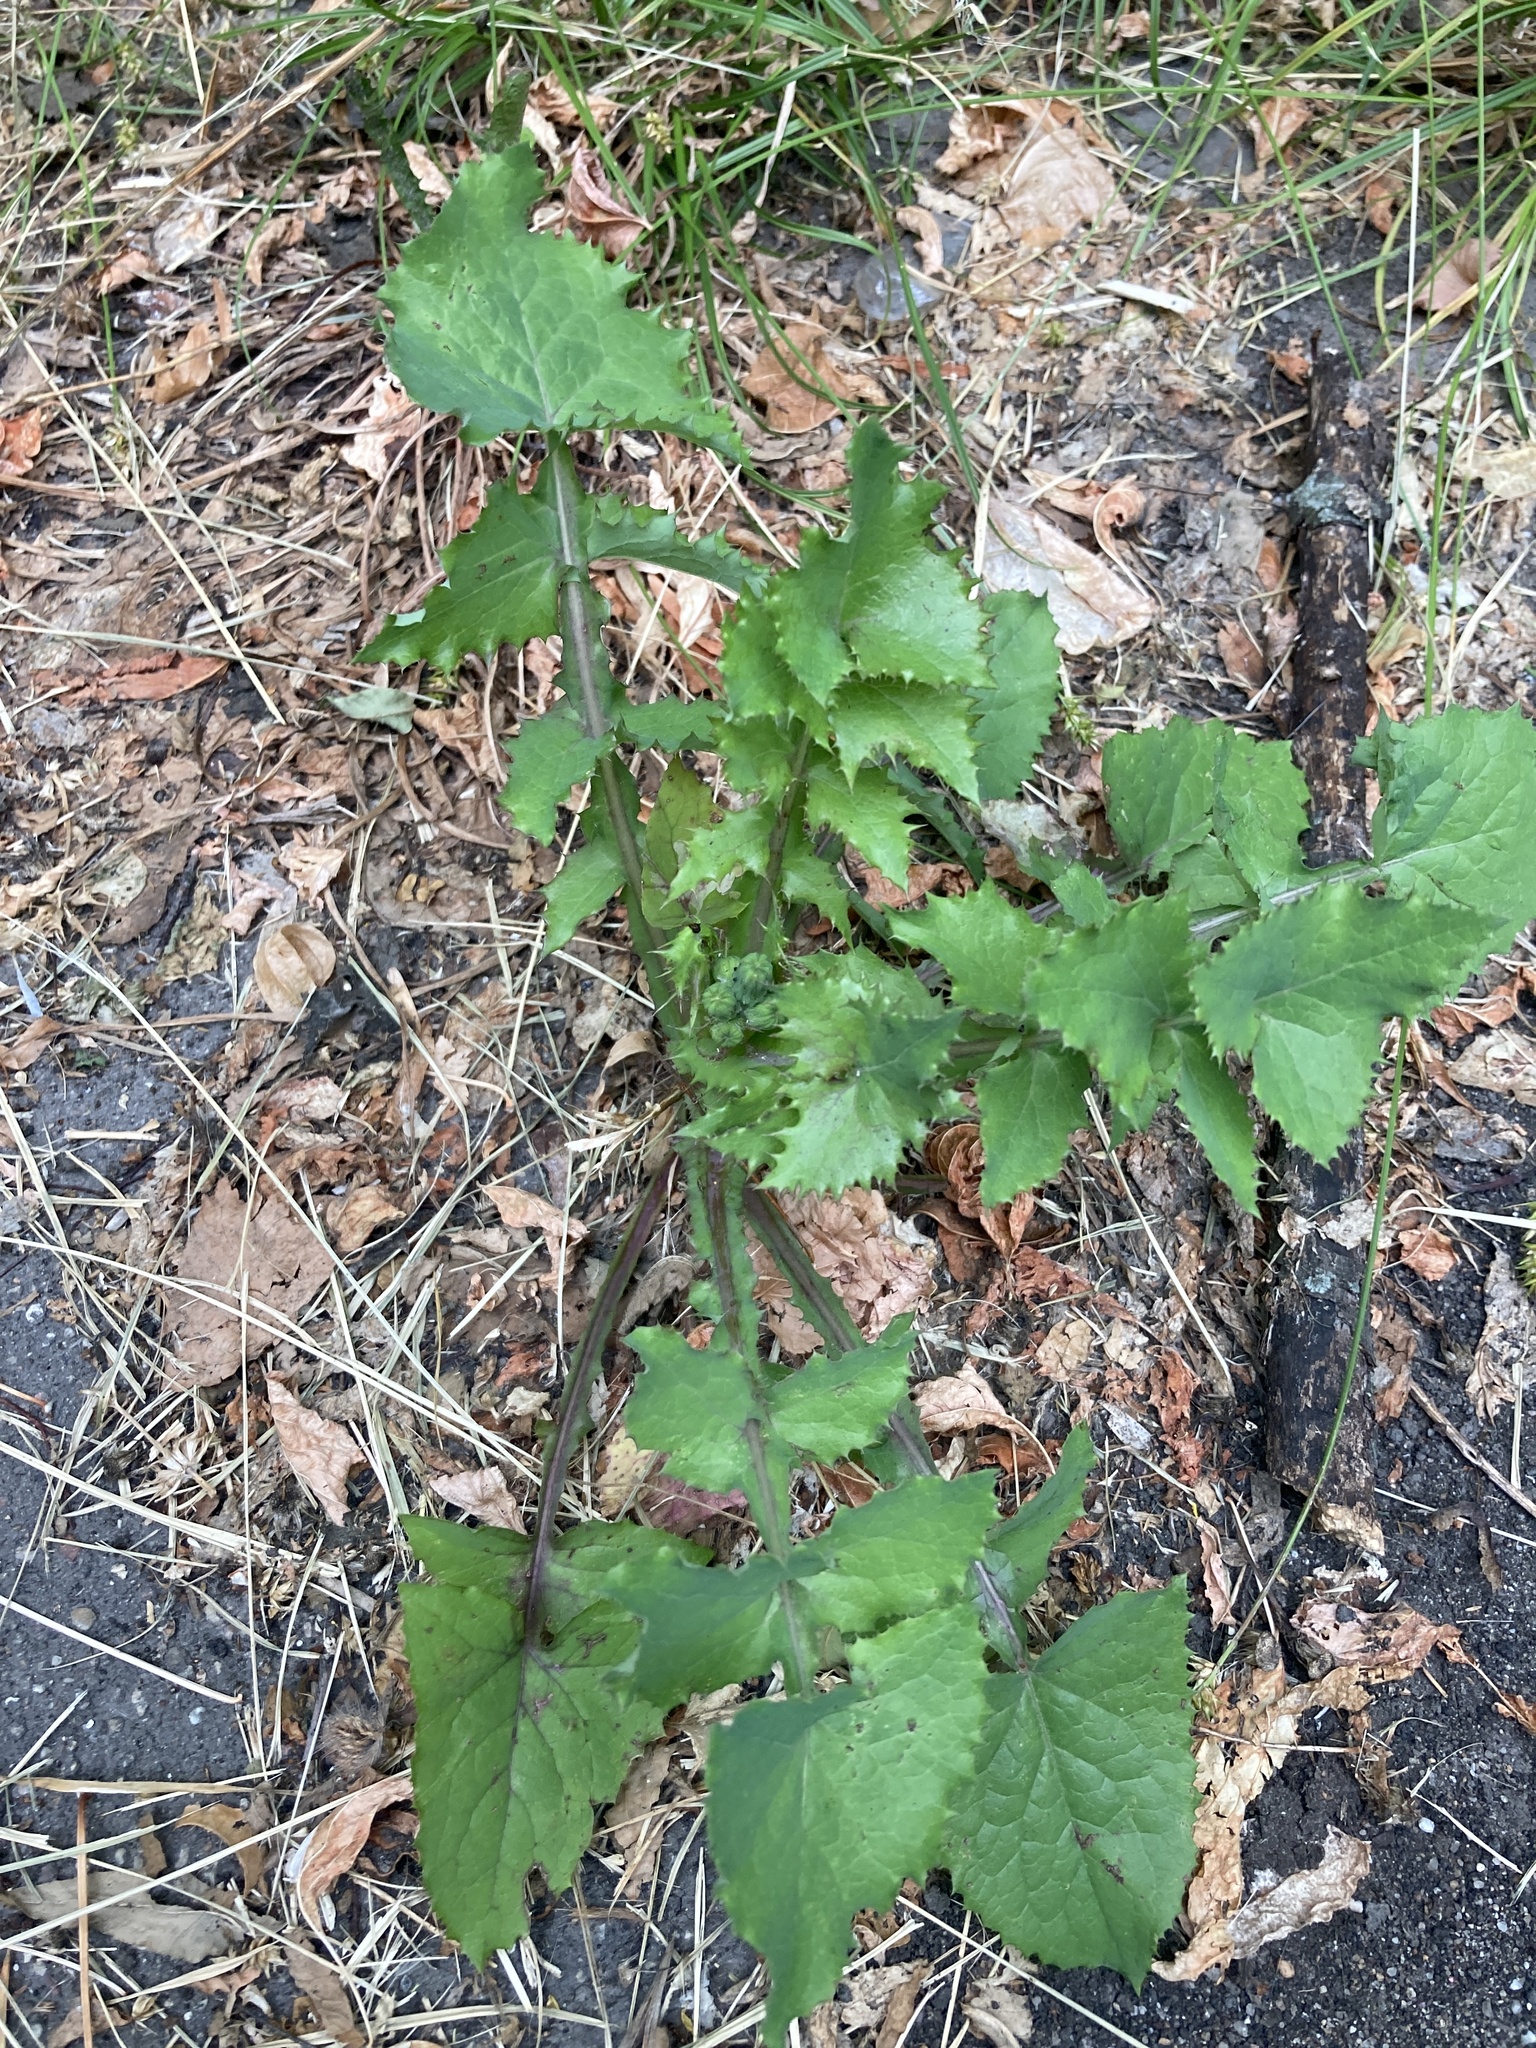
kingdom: Plantae
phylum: Tracheophyta
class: Magnoliopsida
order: Asterales
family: Asteraceae
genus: Sonchus
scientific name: Sonchus oleraceus
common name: Common sowthistle
